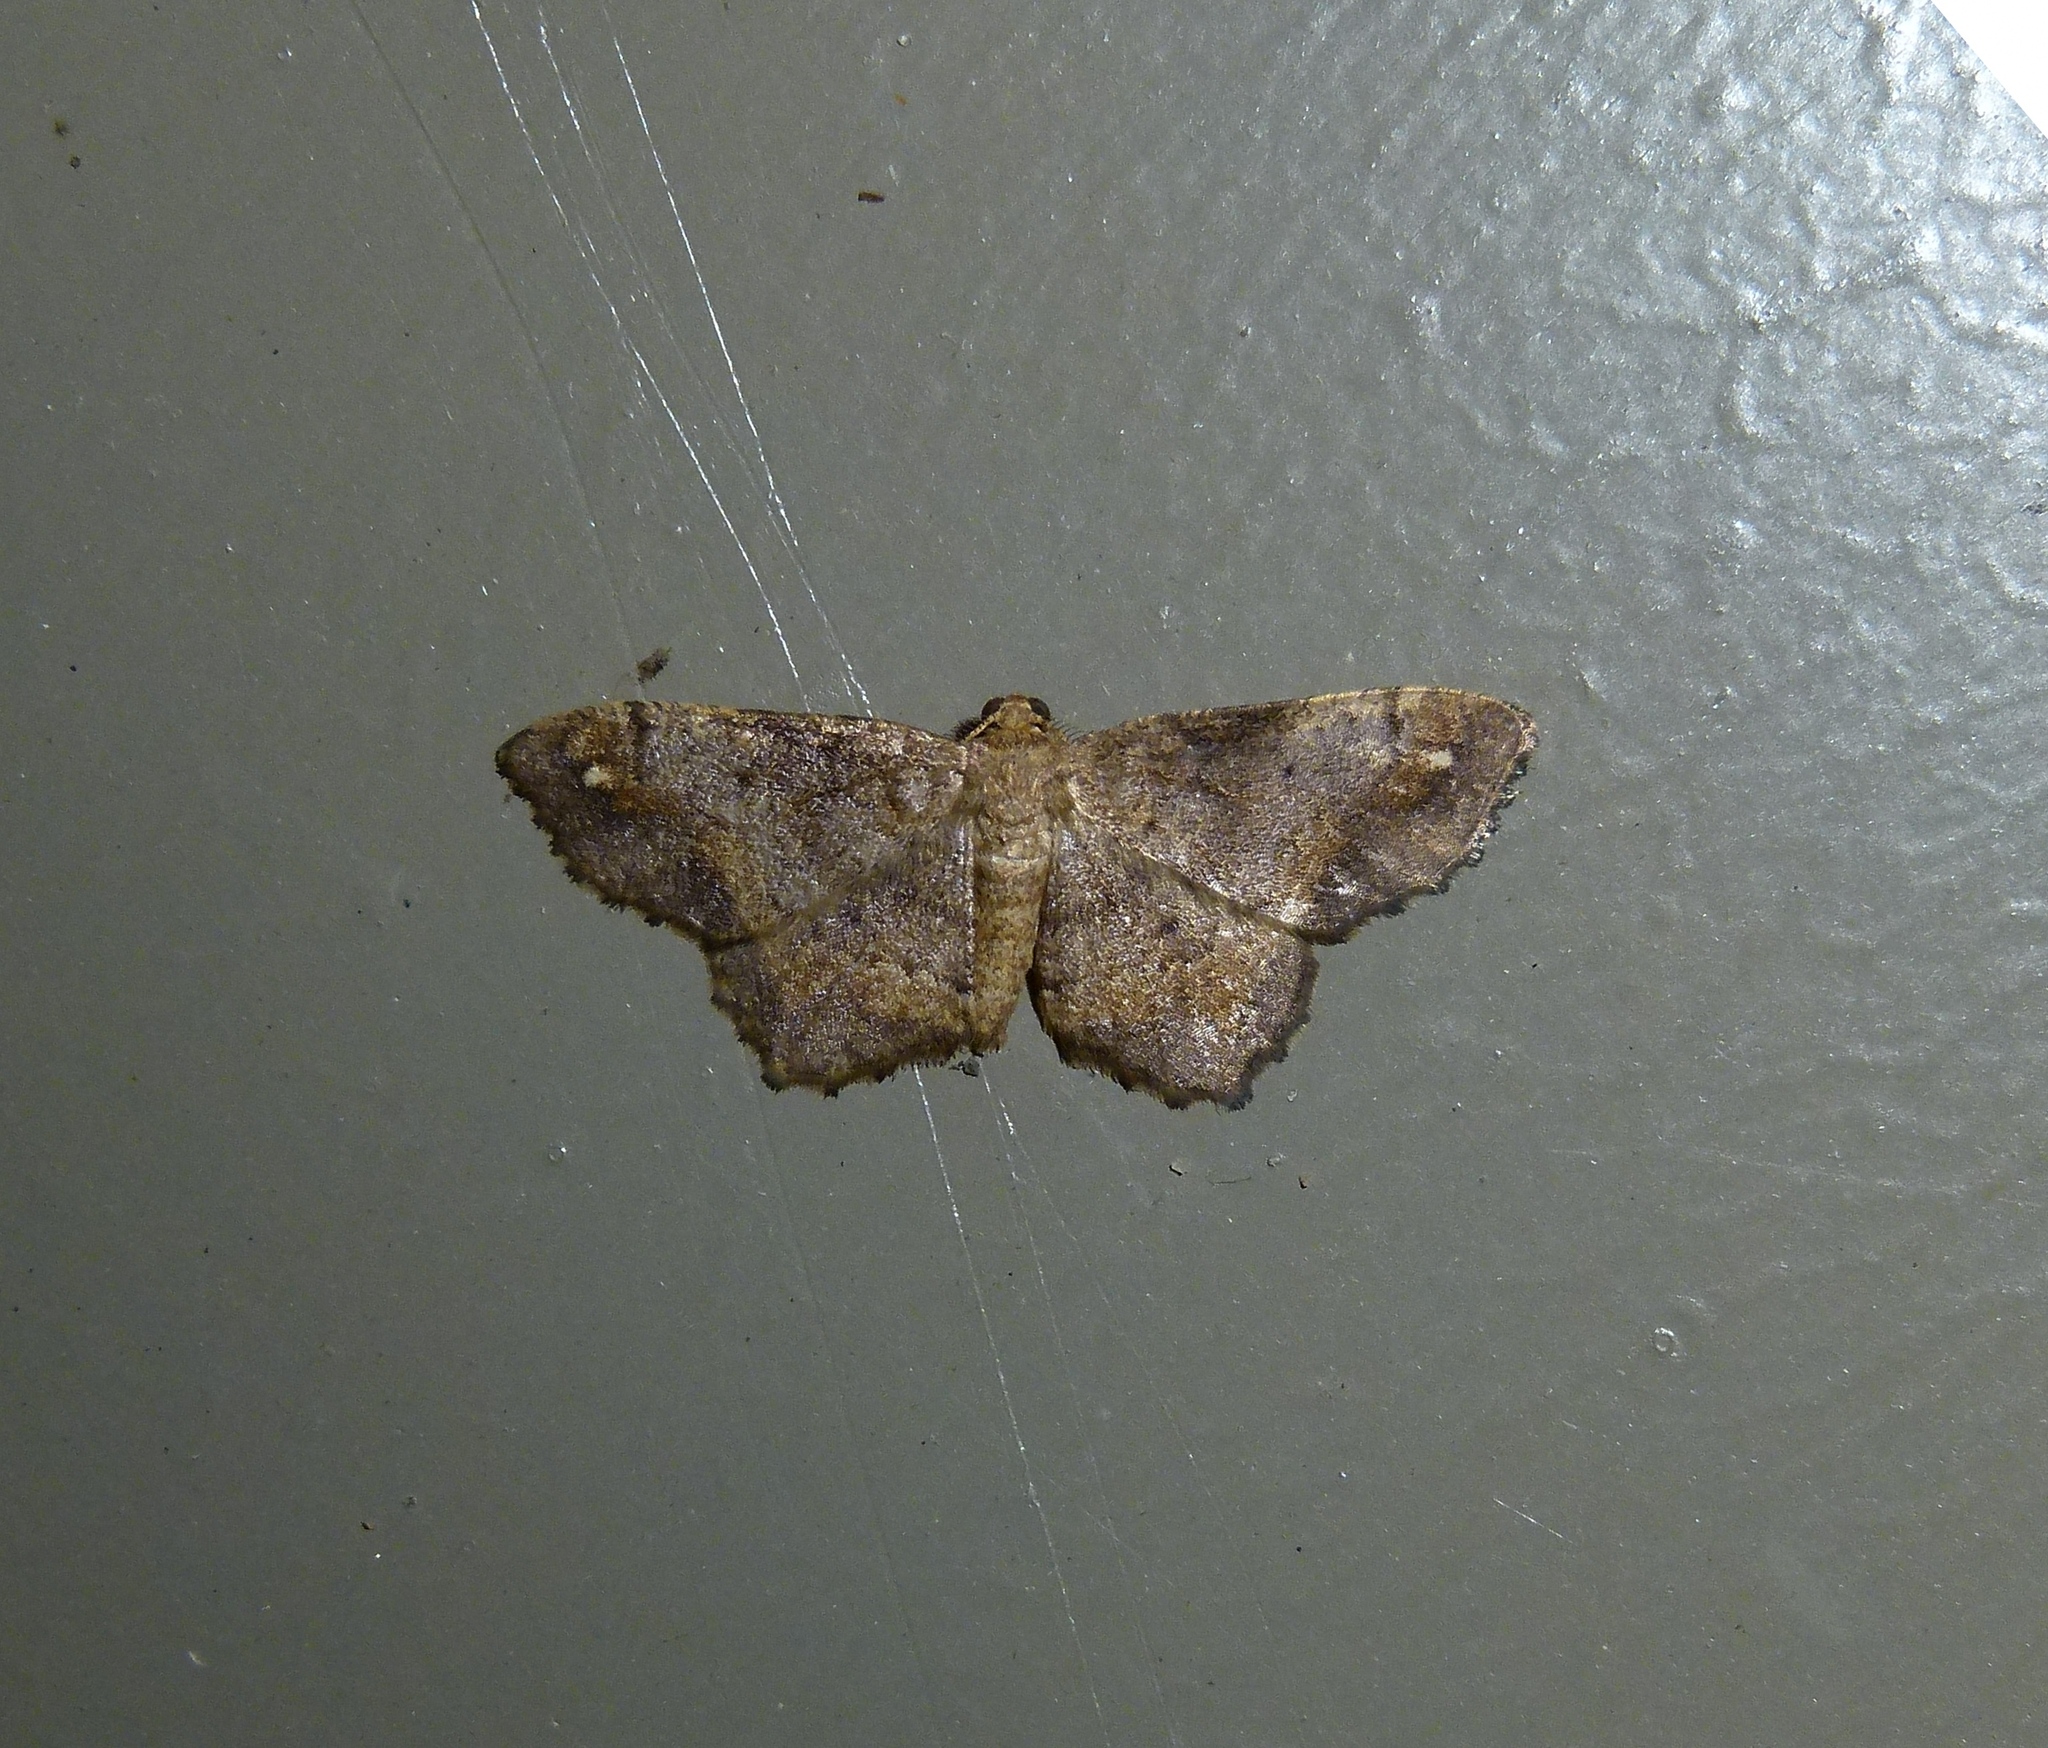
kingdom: Animalia
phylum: Arthropoda
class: Insecta
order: Lepidoptera
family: Geometridae
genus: Hypagyrtis
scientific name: Hypagyrtis unipunctata
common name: One-spotted variant
